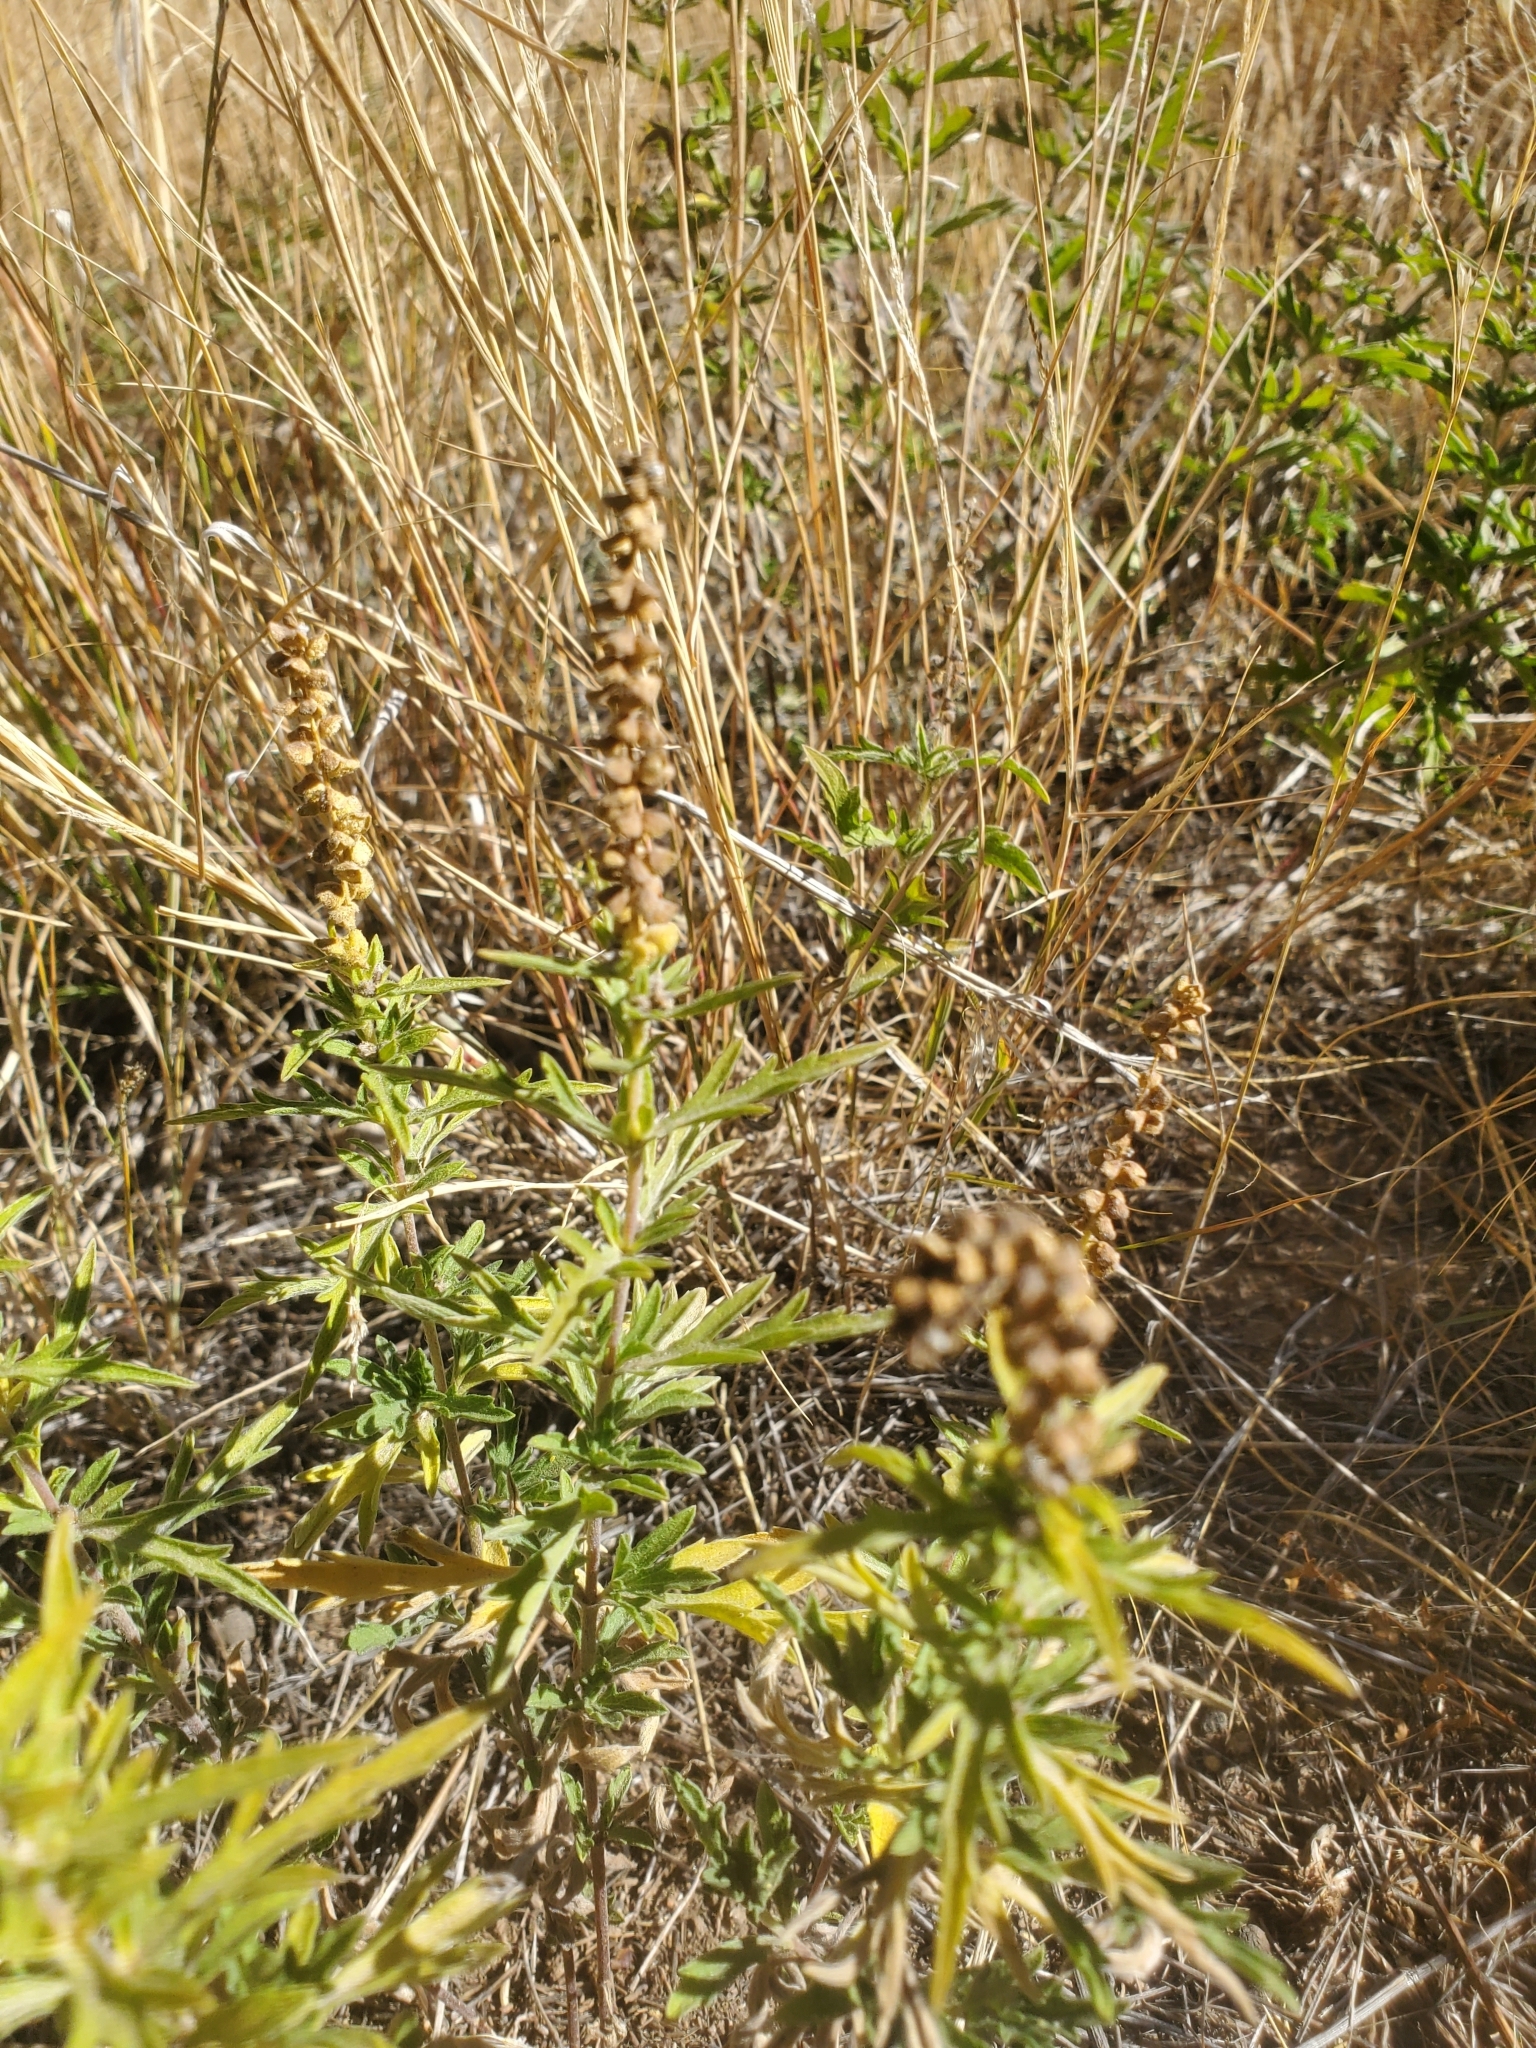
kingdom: Plantae
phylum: Tracheophyta
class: Magnoliopsida
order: Asterales
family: Asteraceae
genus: Ambrosia
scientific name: Ambrosia psilostachya
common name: Perennial ragweed
